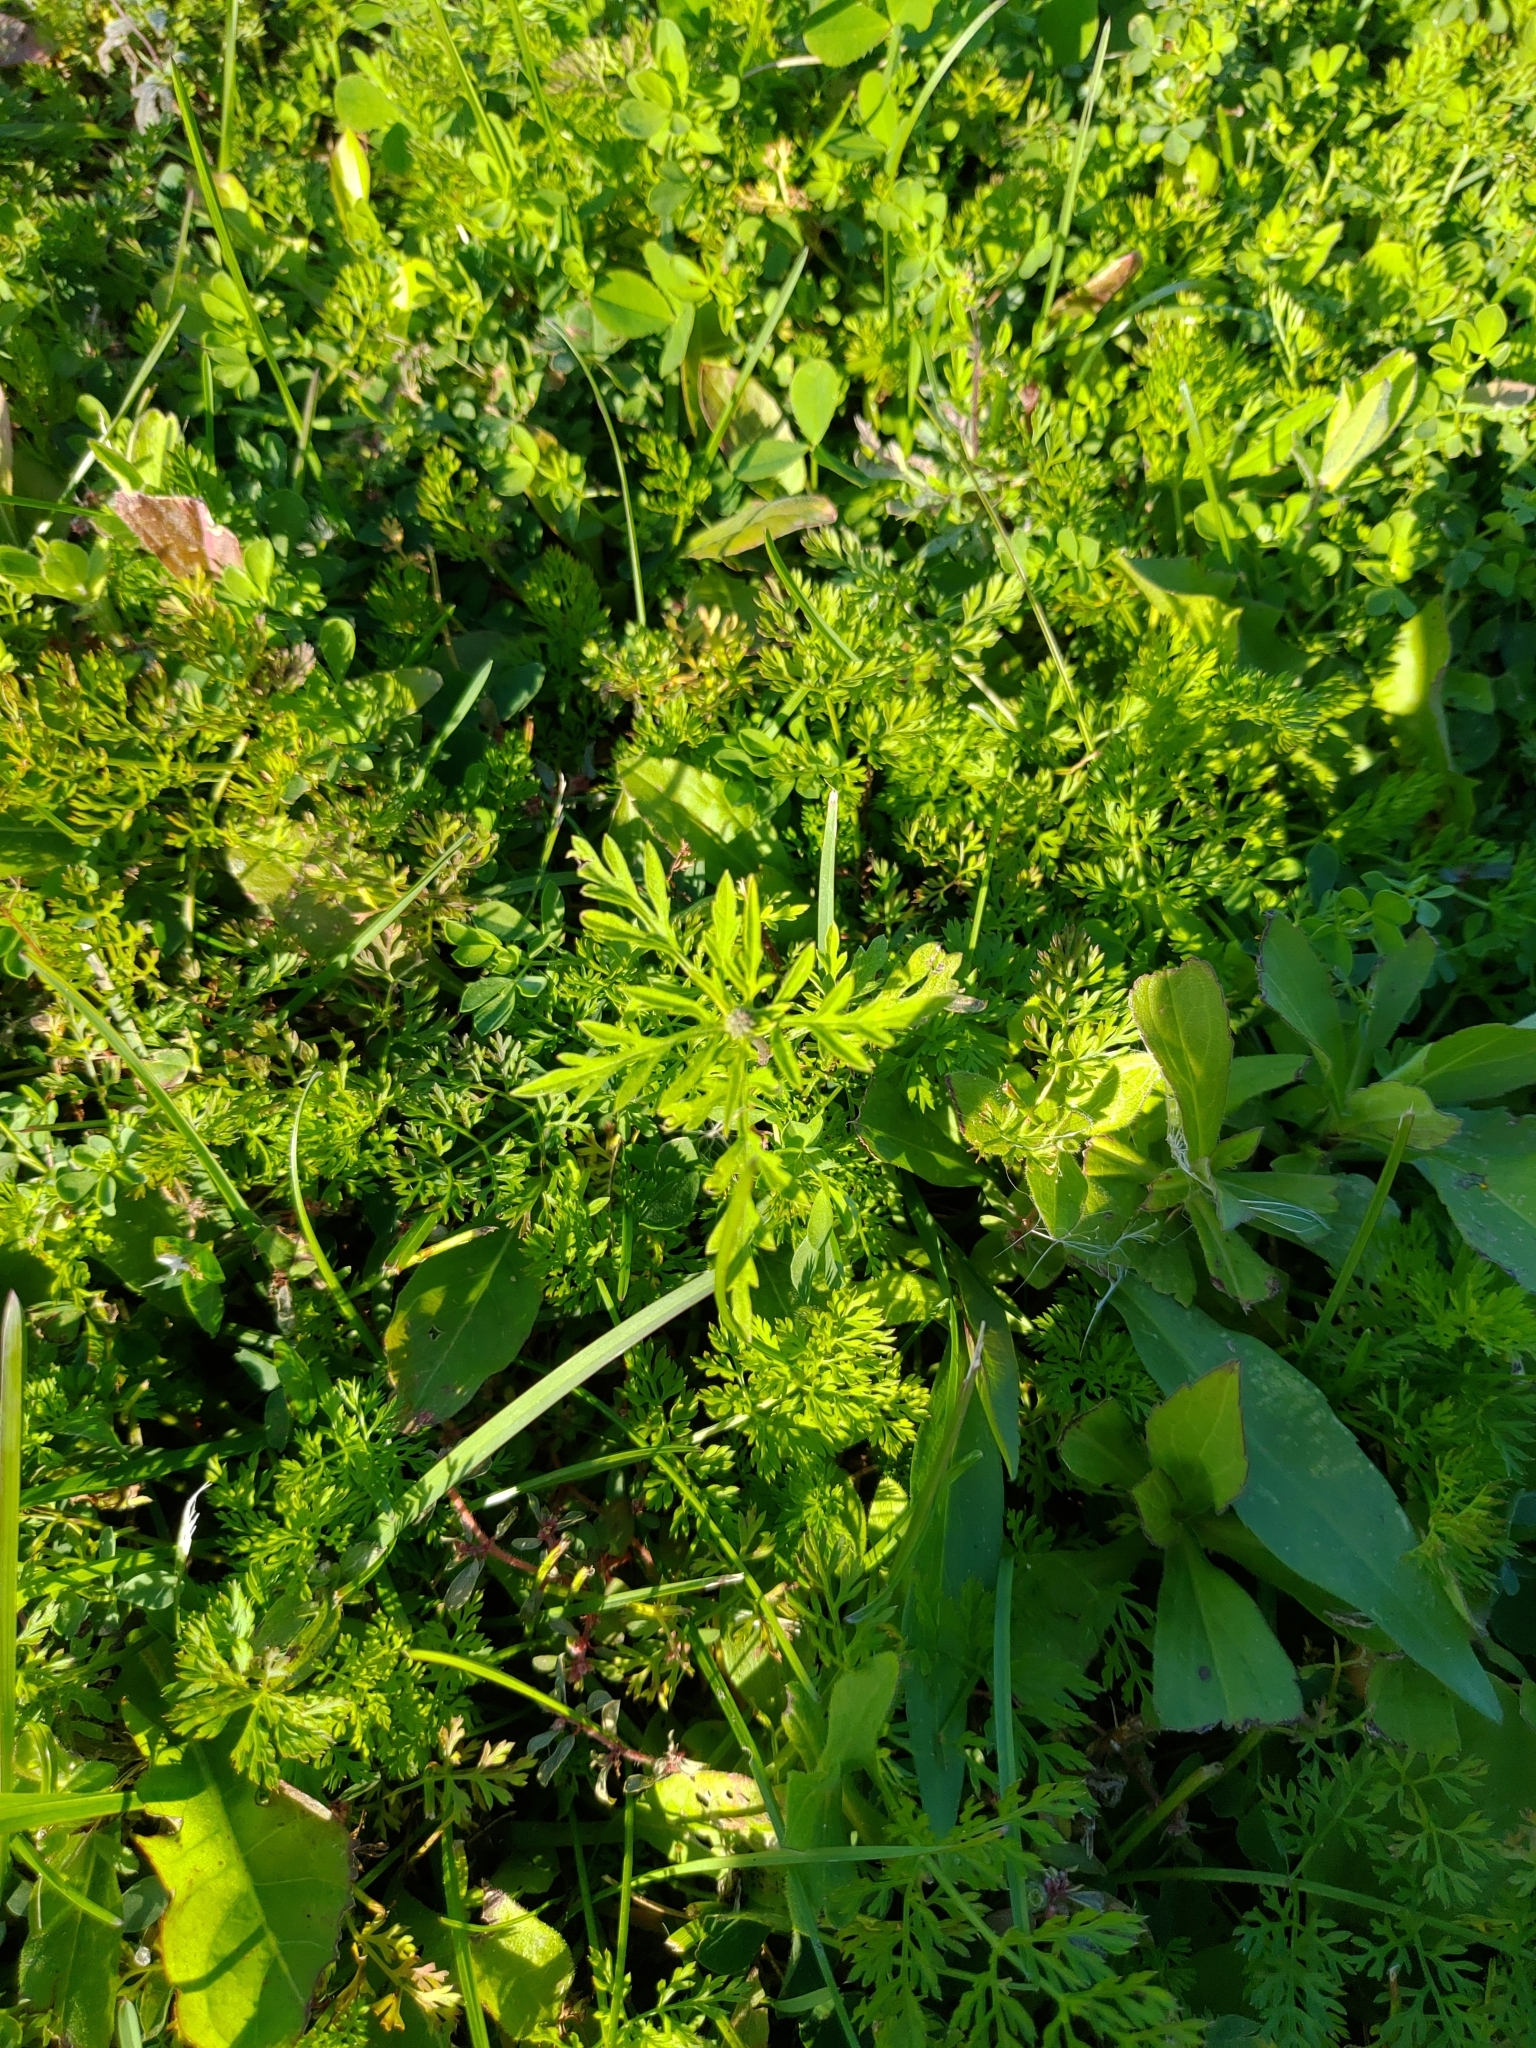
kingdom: Plantae
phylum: Tracheophyta
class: Magnoliopsida
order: Asterales
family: Asteraceae
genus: Ambrosia
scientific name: Ambrosia artemisiifolia
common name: Annual ragweed
